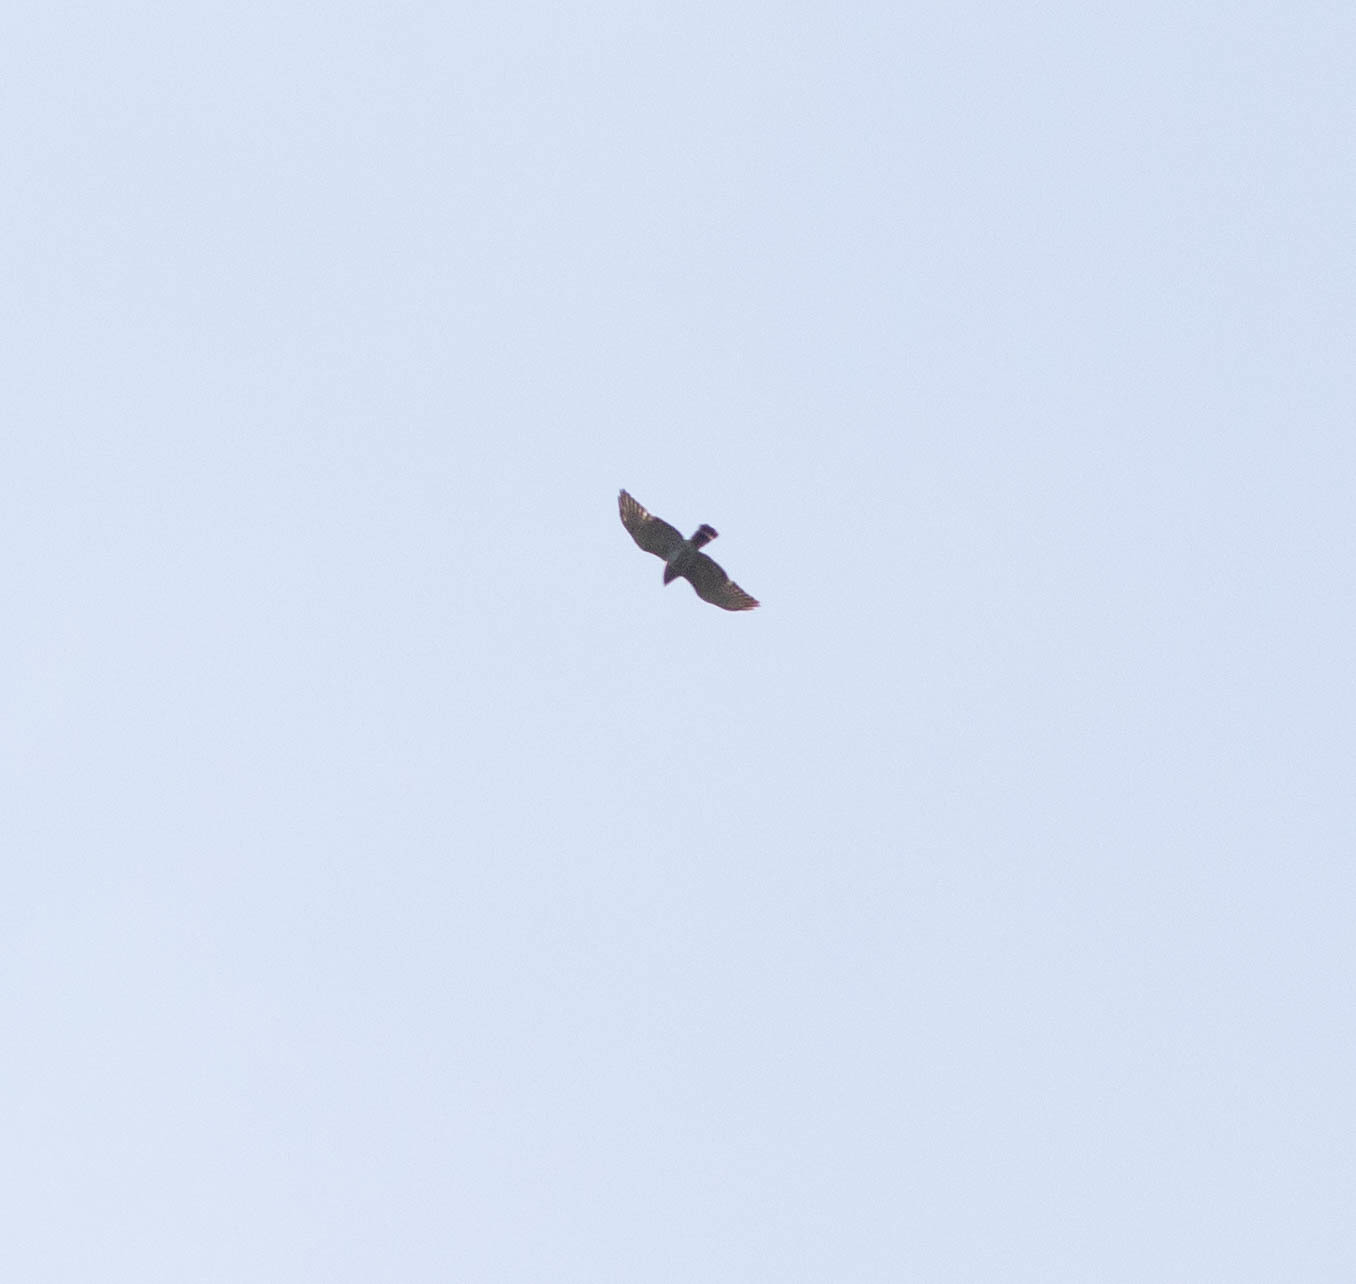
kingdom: Animalia
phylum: Chordata
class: Aves
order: Accipitriformes
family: Accipitridae
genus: Buteo
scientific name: Buteo platypterus
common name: Broad-winged hawk
